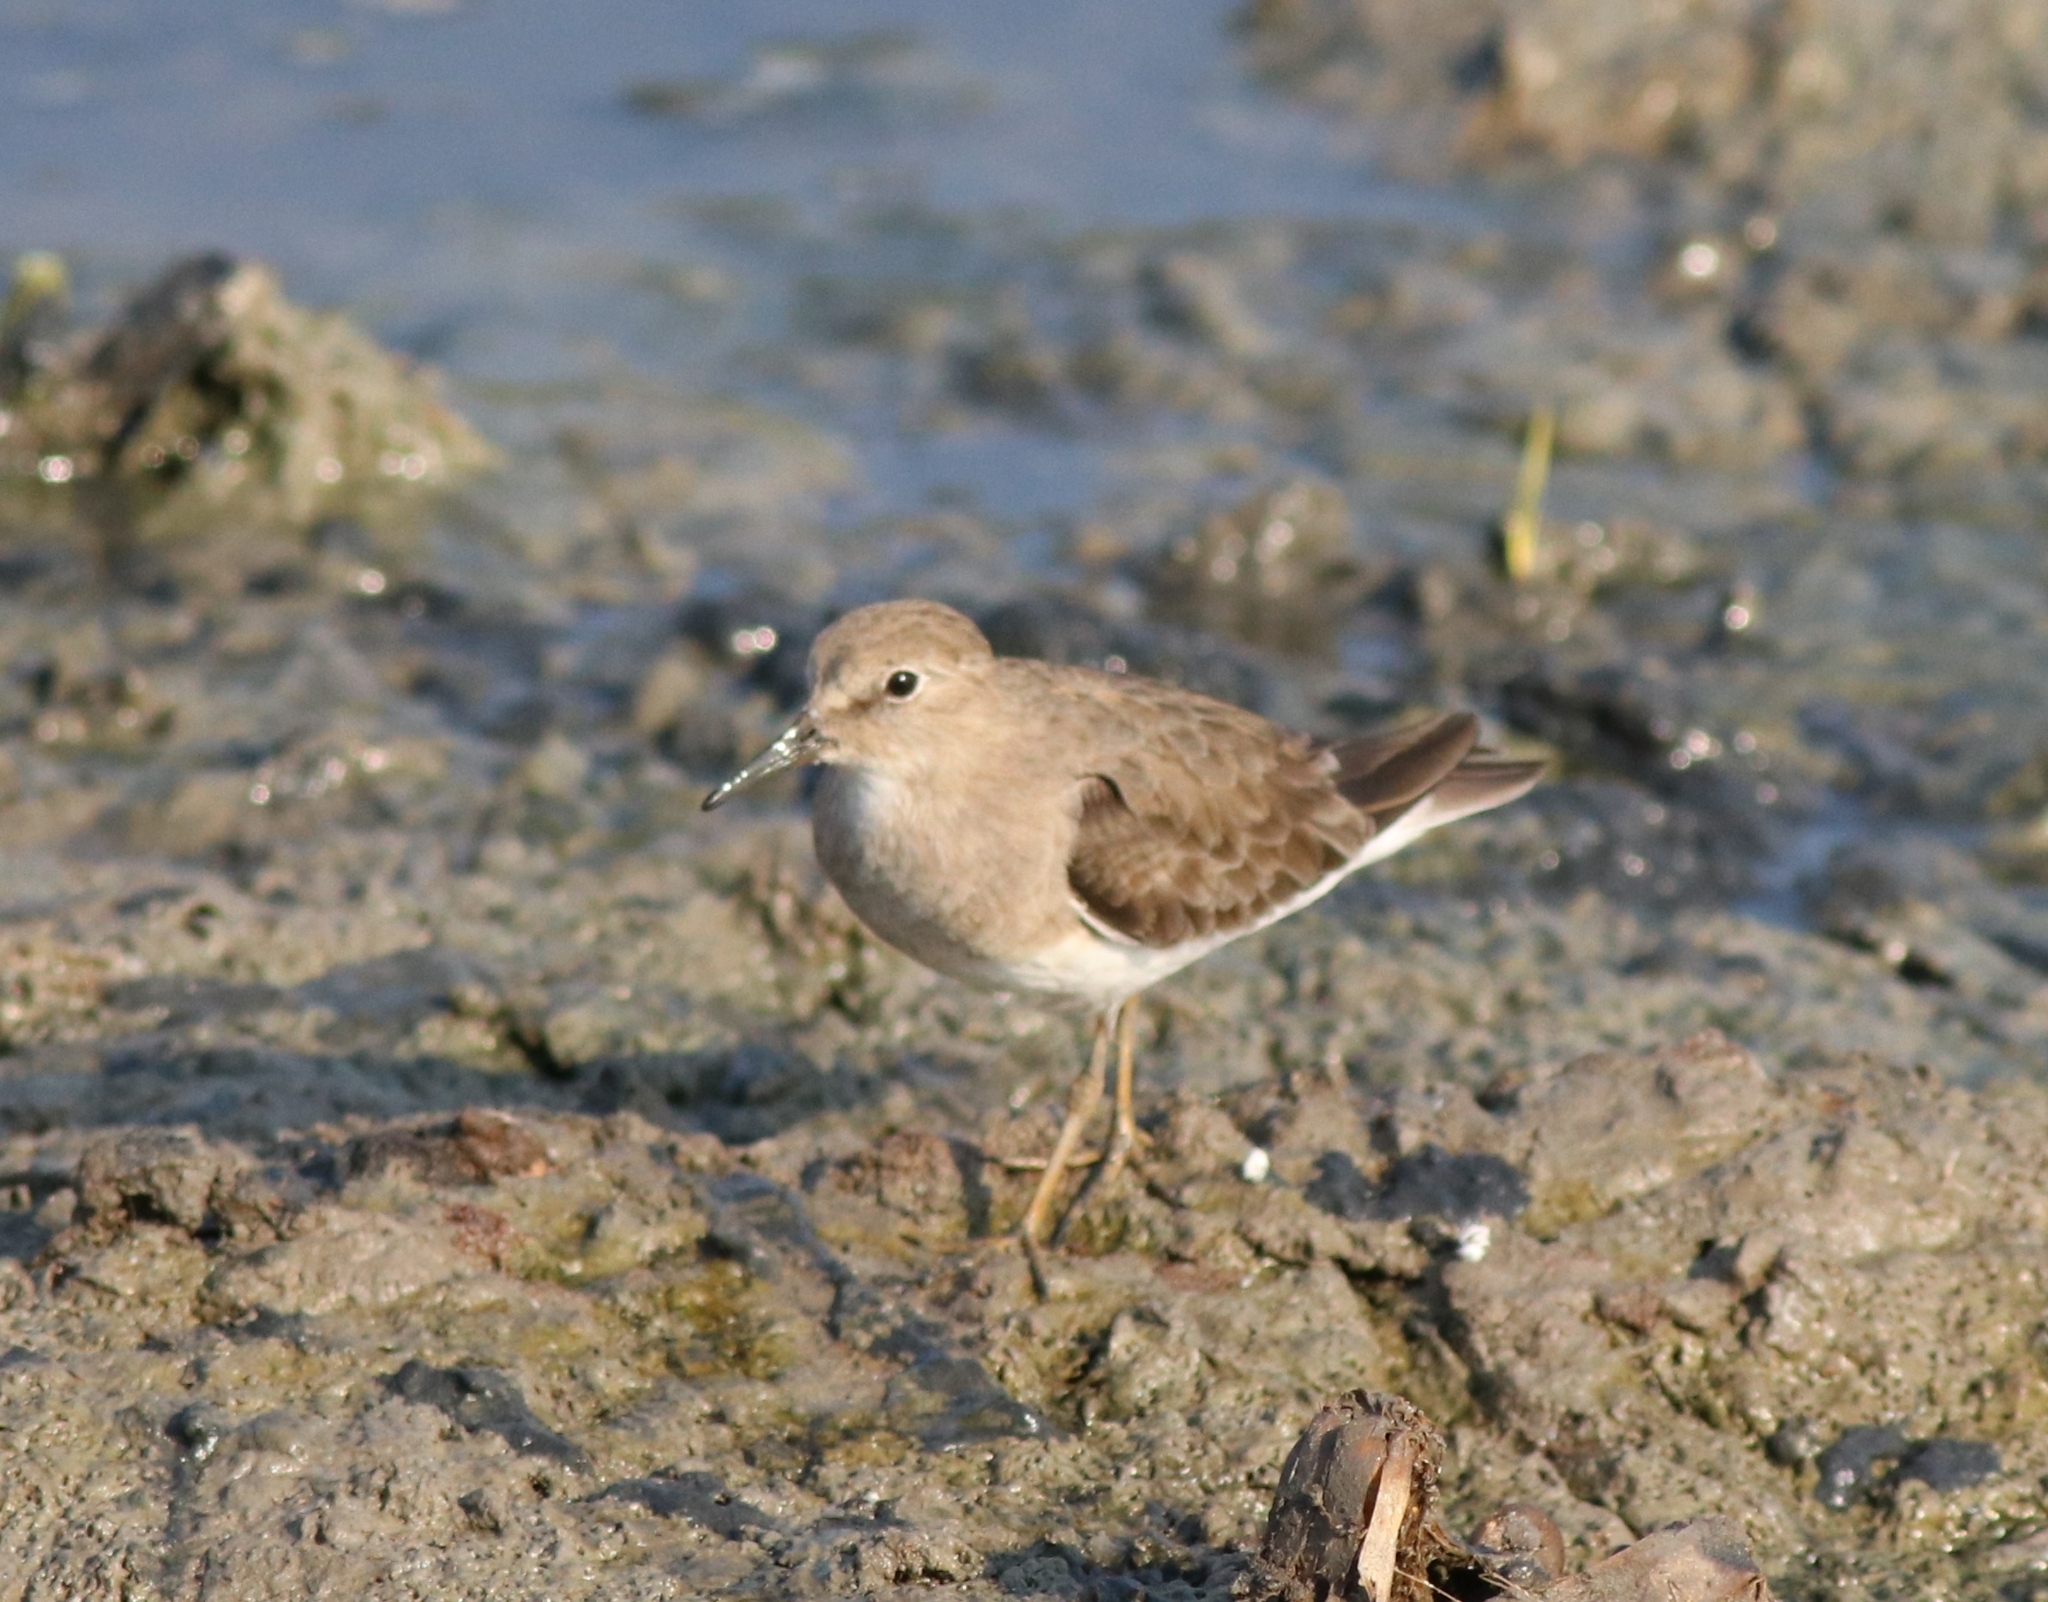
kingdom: Animalia
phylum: Chordata
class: Aves
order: Charadriiformes
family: Scolopacidae
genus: Calidris
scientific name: Calidris temminckii
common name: Temminck's stint
